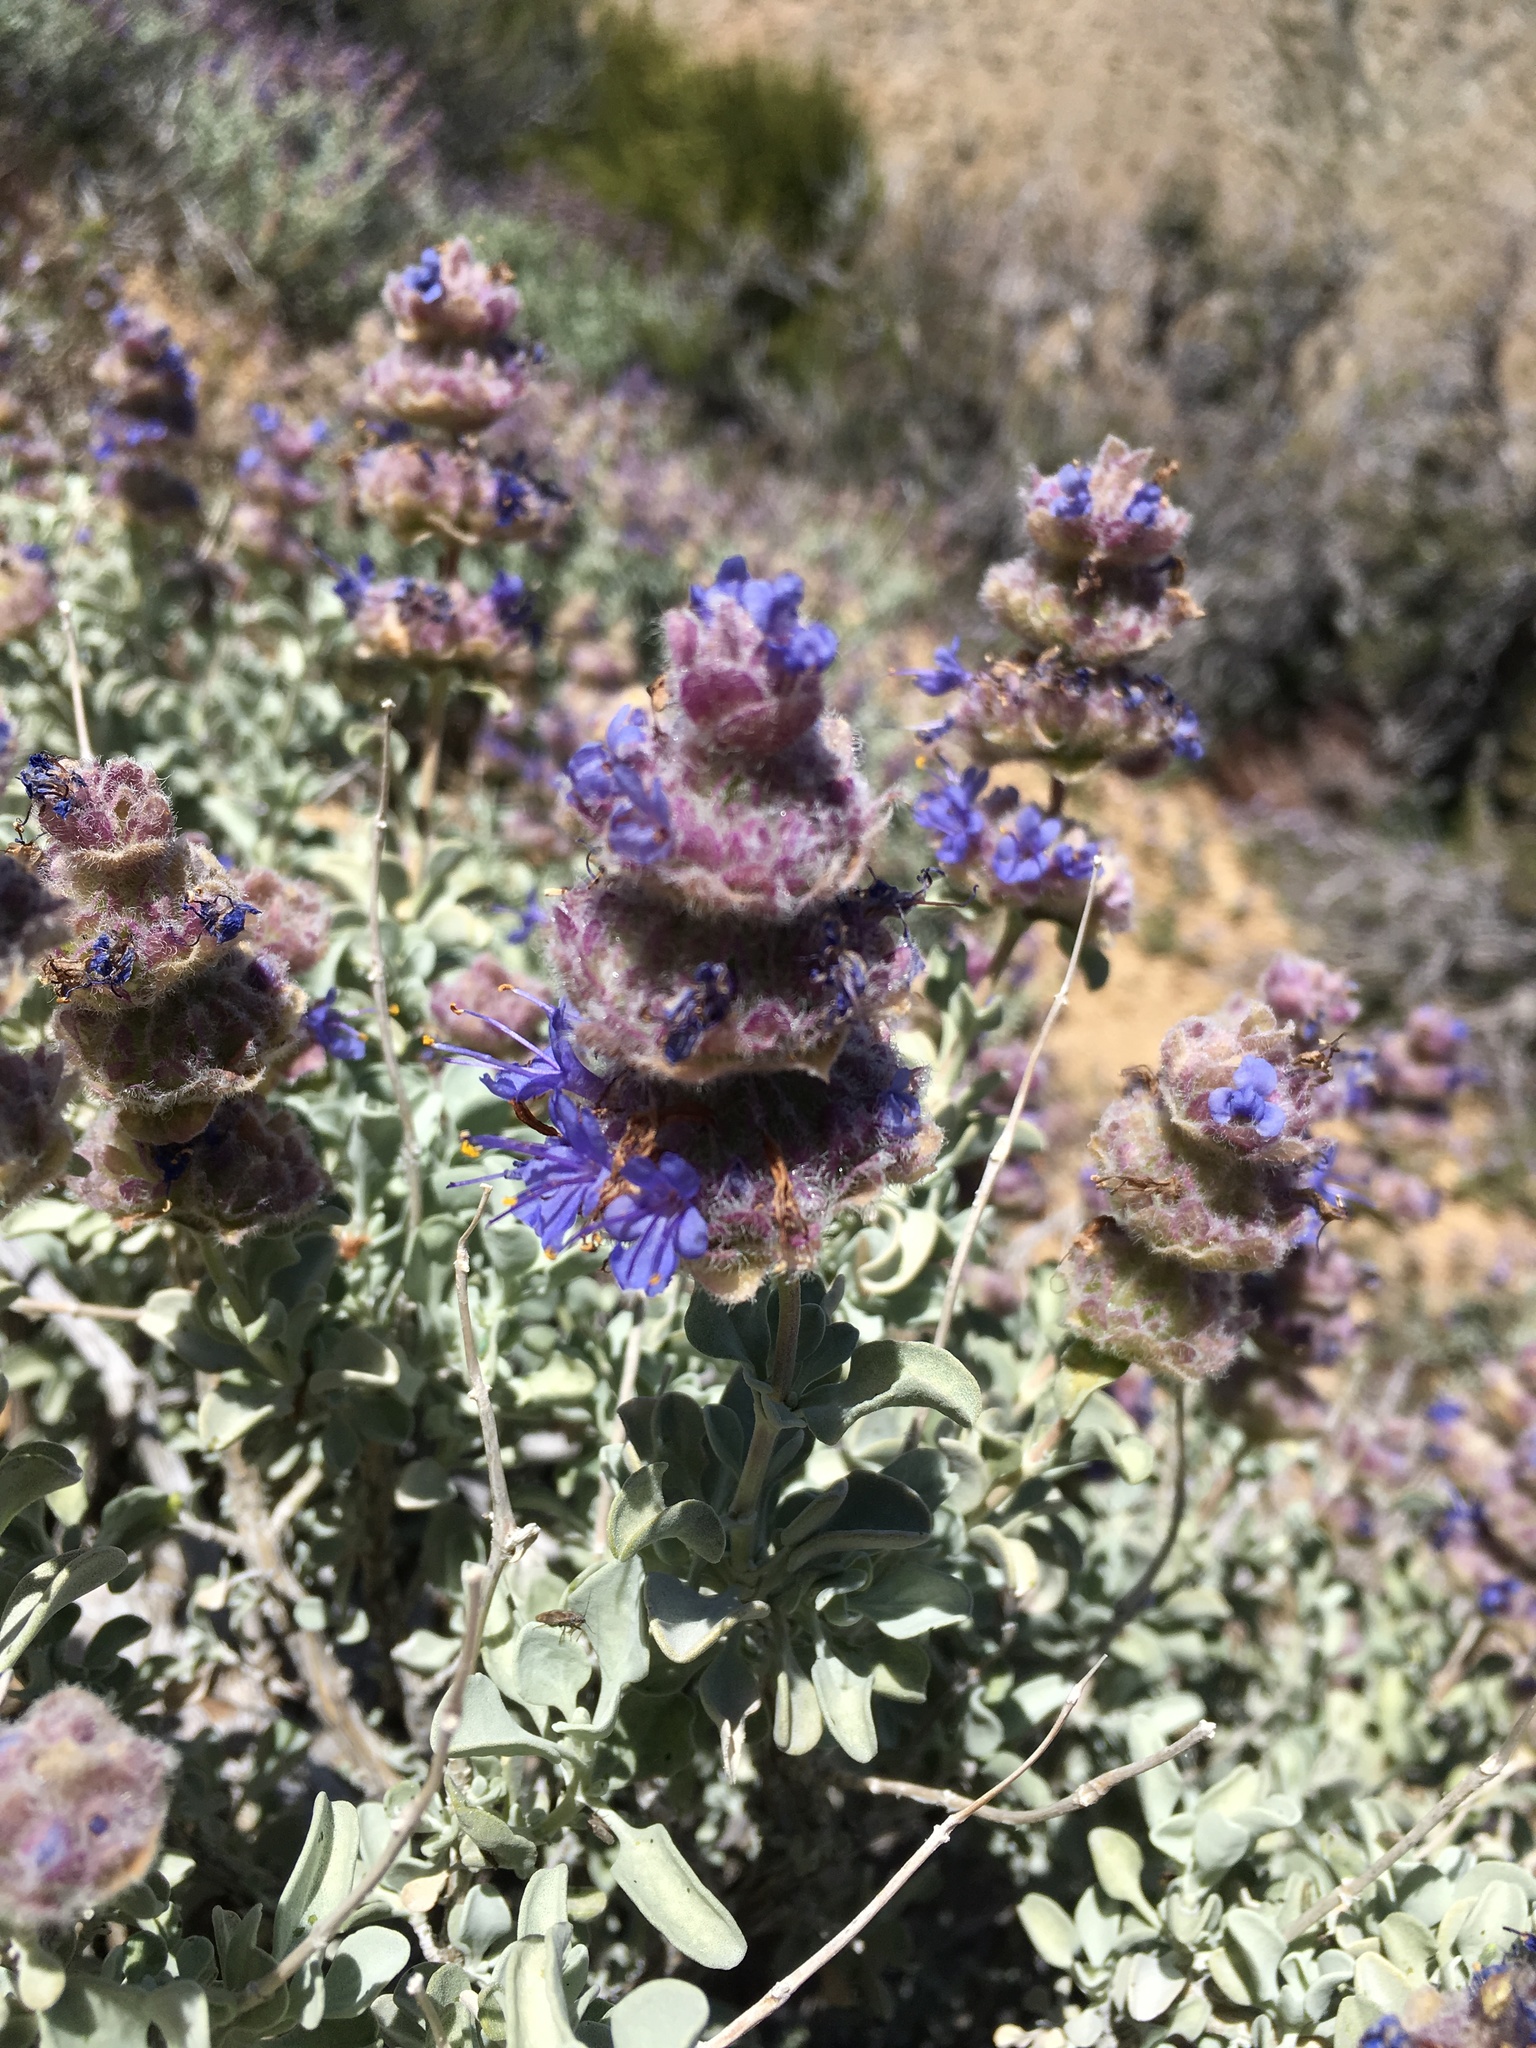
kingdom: Plantae
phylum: Tracheophyta
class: Magnoliopsida
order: Lamiales
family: Lamiaceae
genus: Salvia
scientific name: Salvia dorrii
